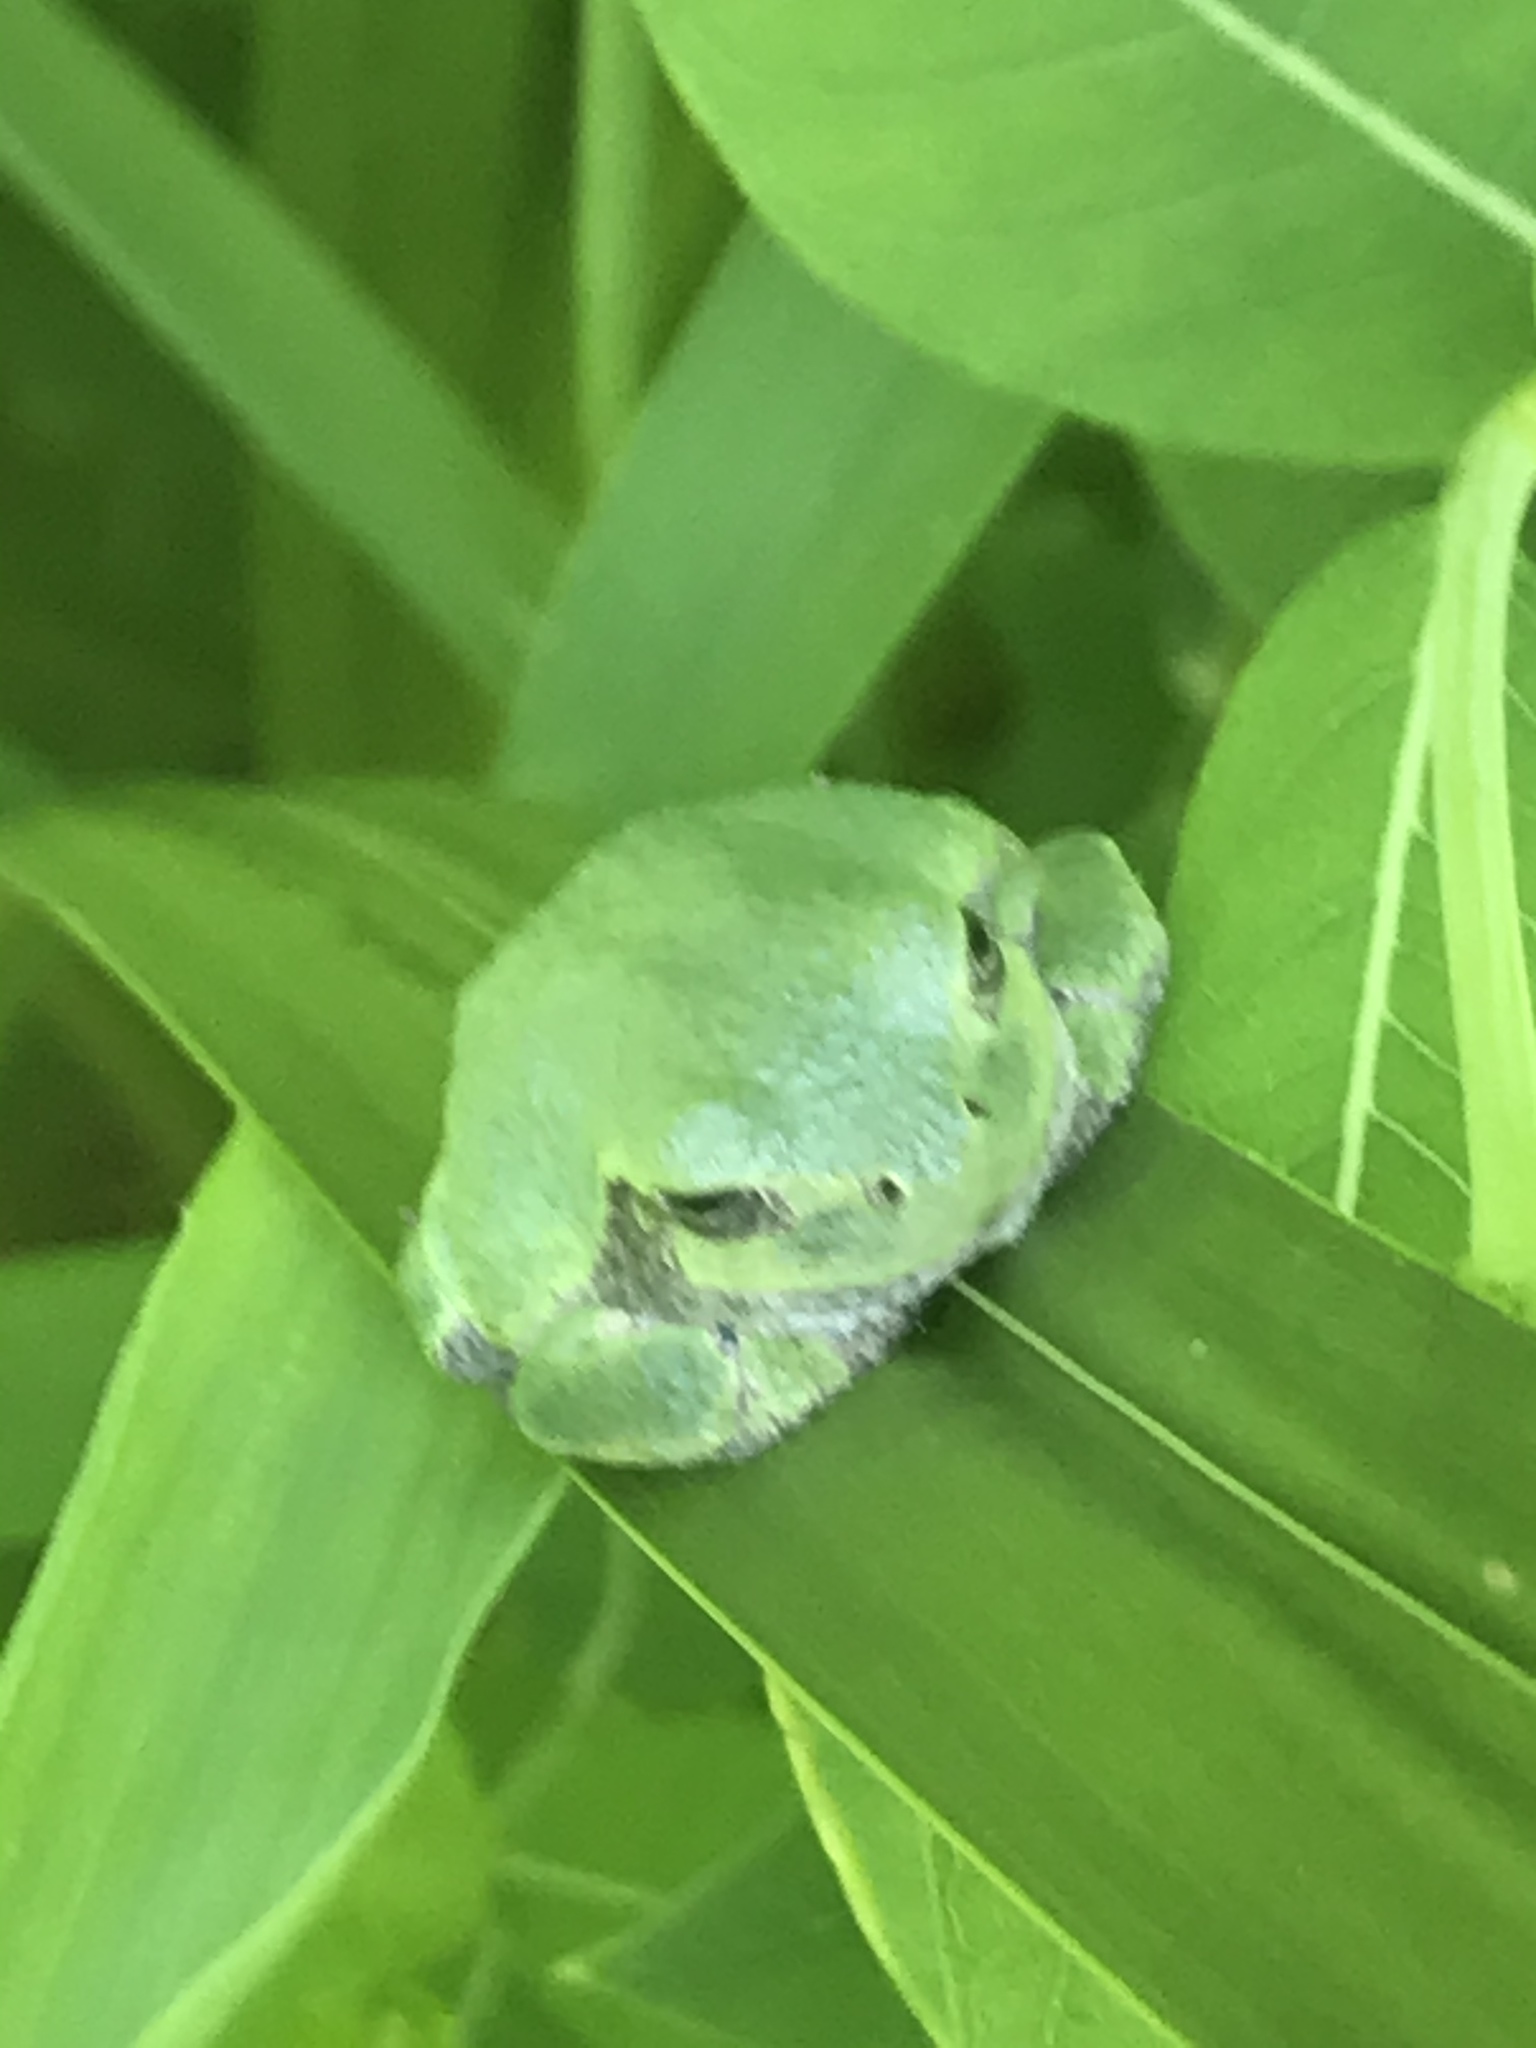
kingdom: Animalia
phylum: Chordata
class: Amphibia
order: Anura
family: Hylidae
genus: Dryophytes
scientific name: Dryophytes versicolor
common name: Gray treefrog
